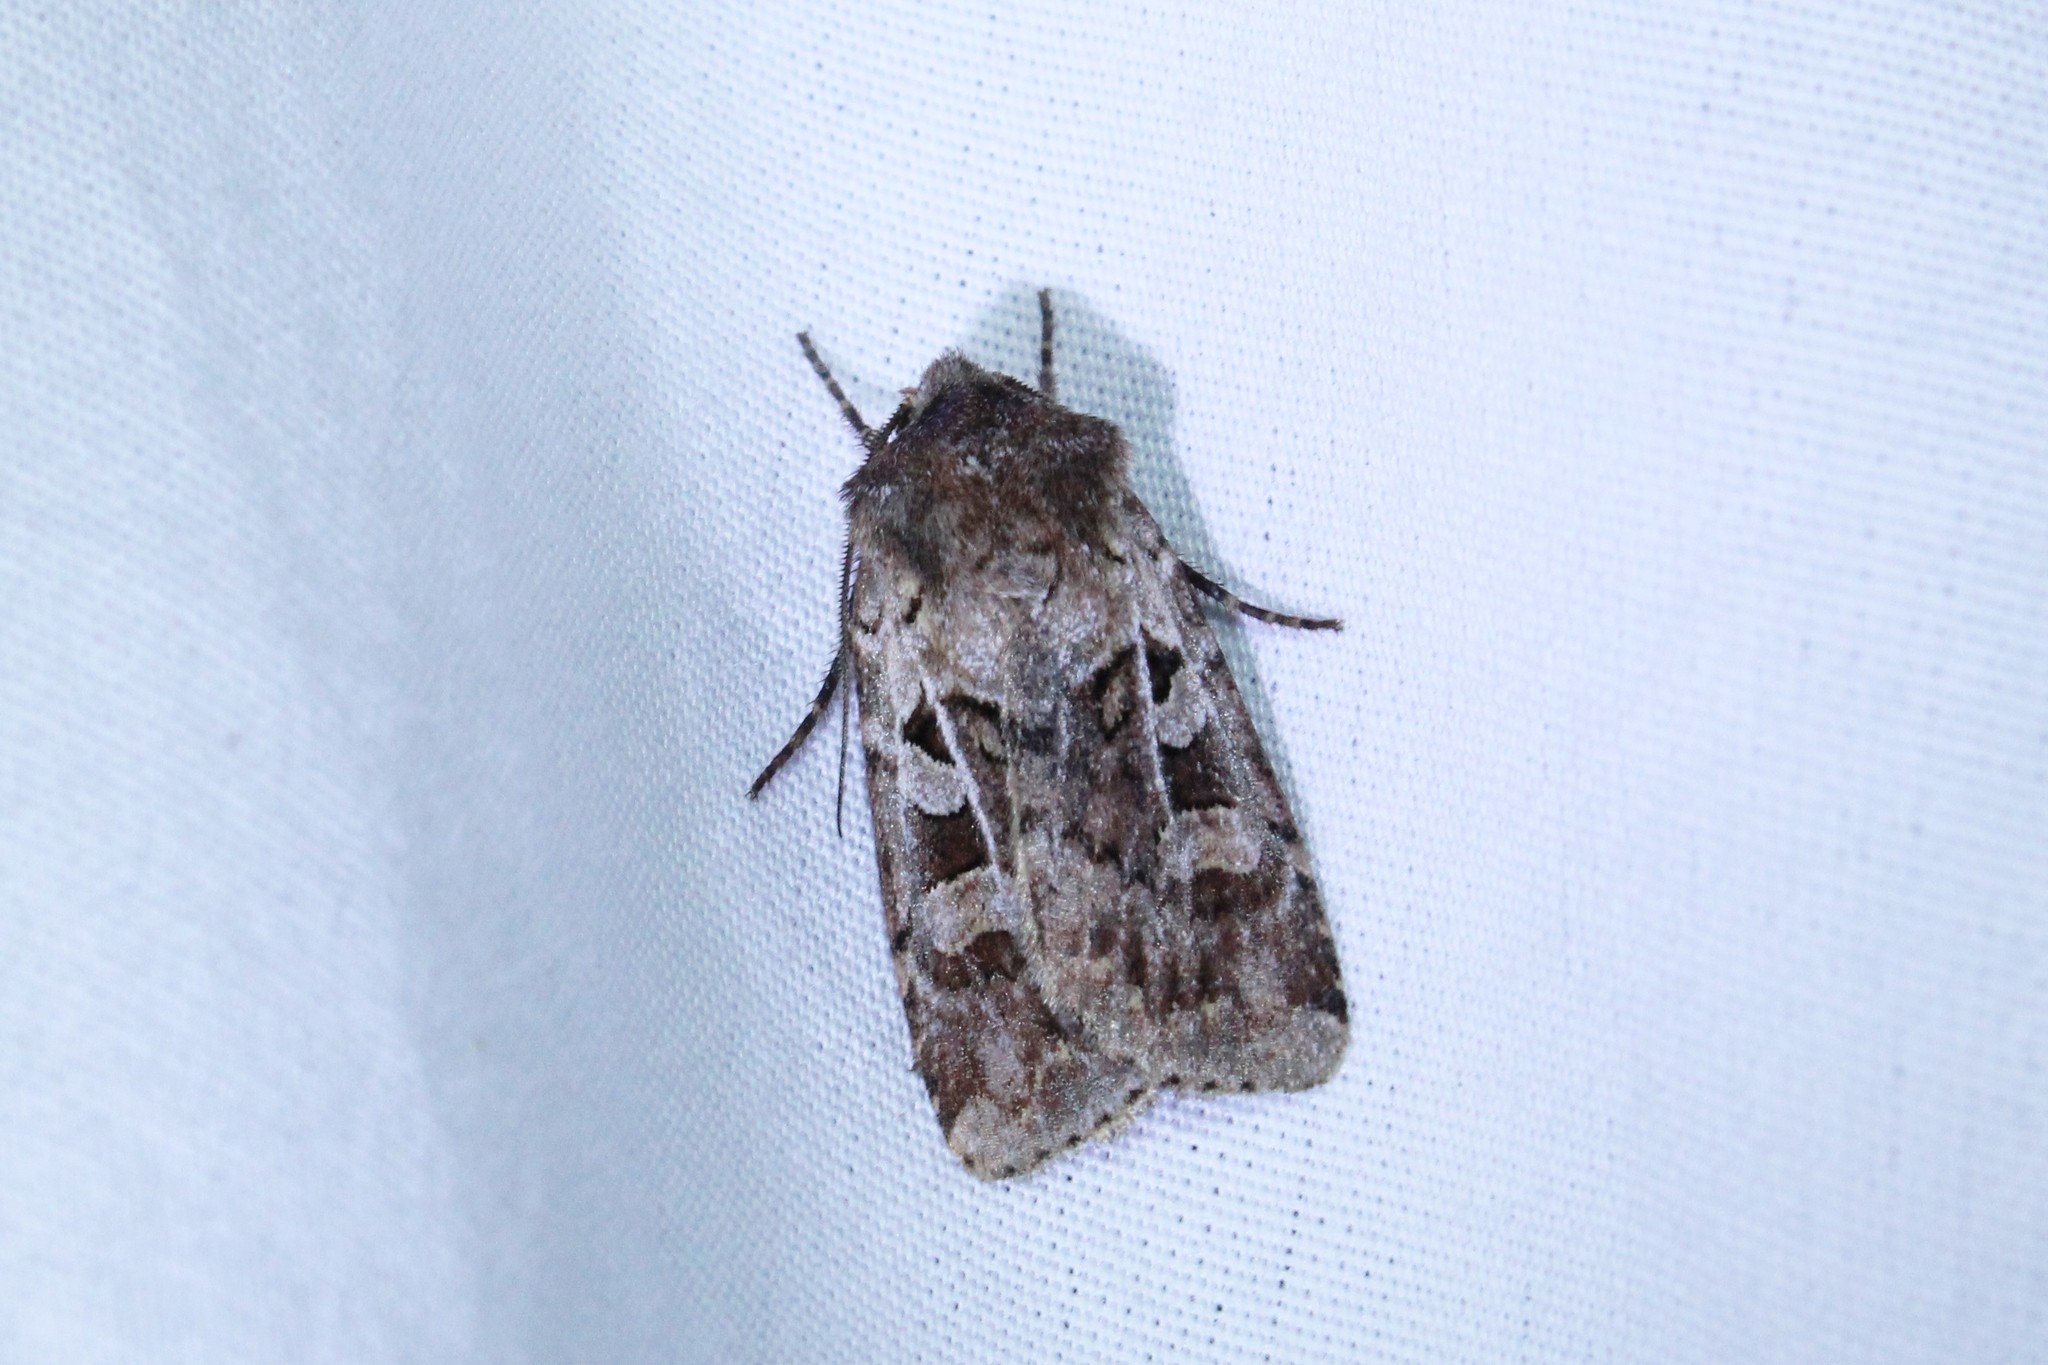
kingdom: Animalia
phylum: Arthropoda
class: Insecta
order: Lepidoptera
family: Noctuidae
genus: Euxoa
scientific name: Euxoa intrita
